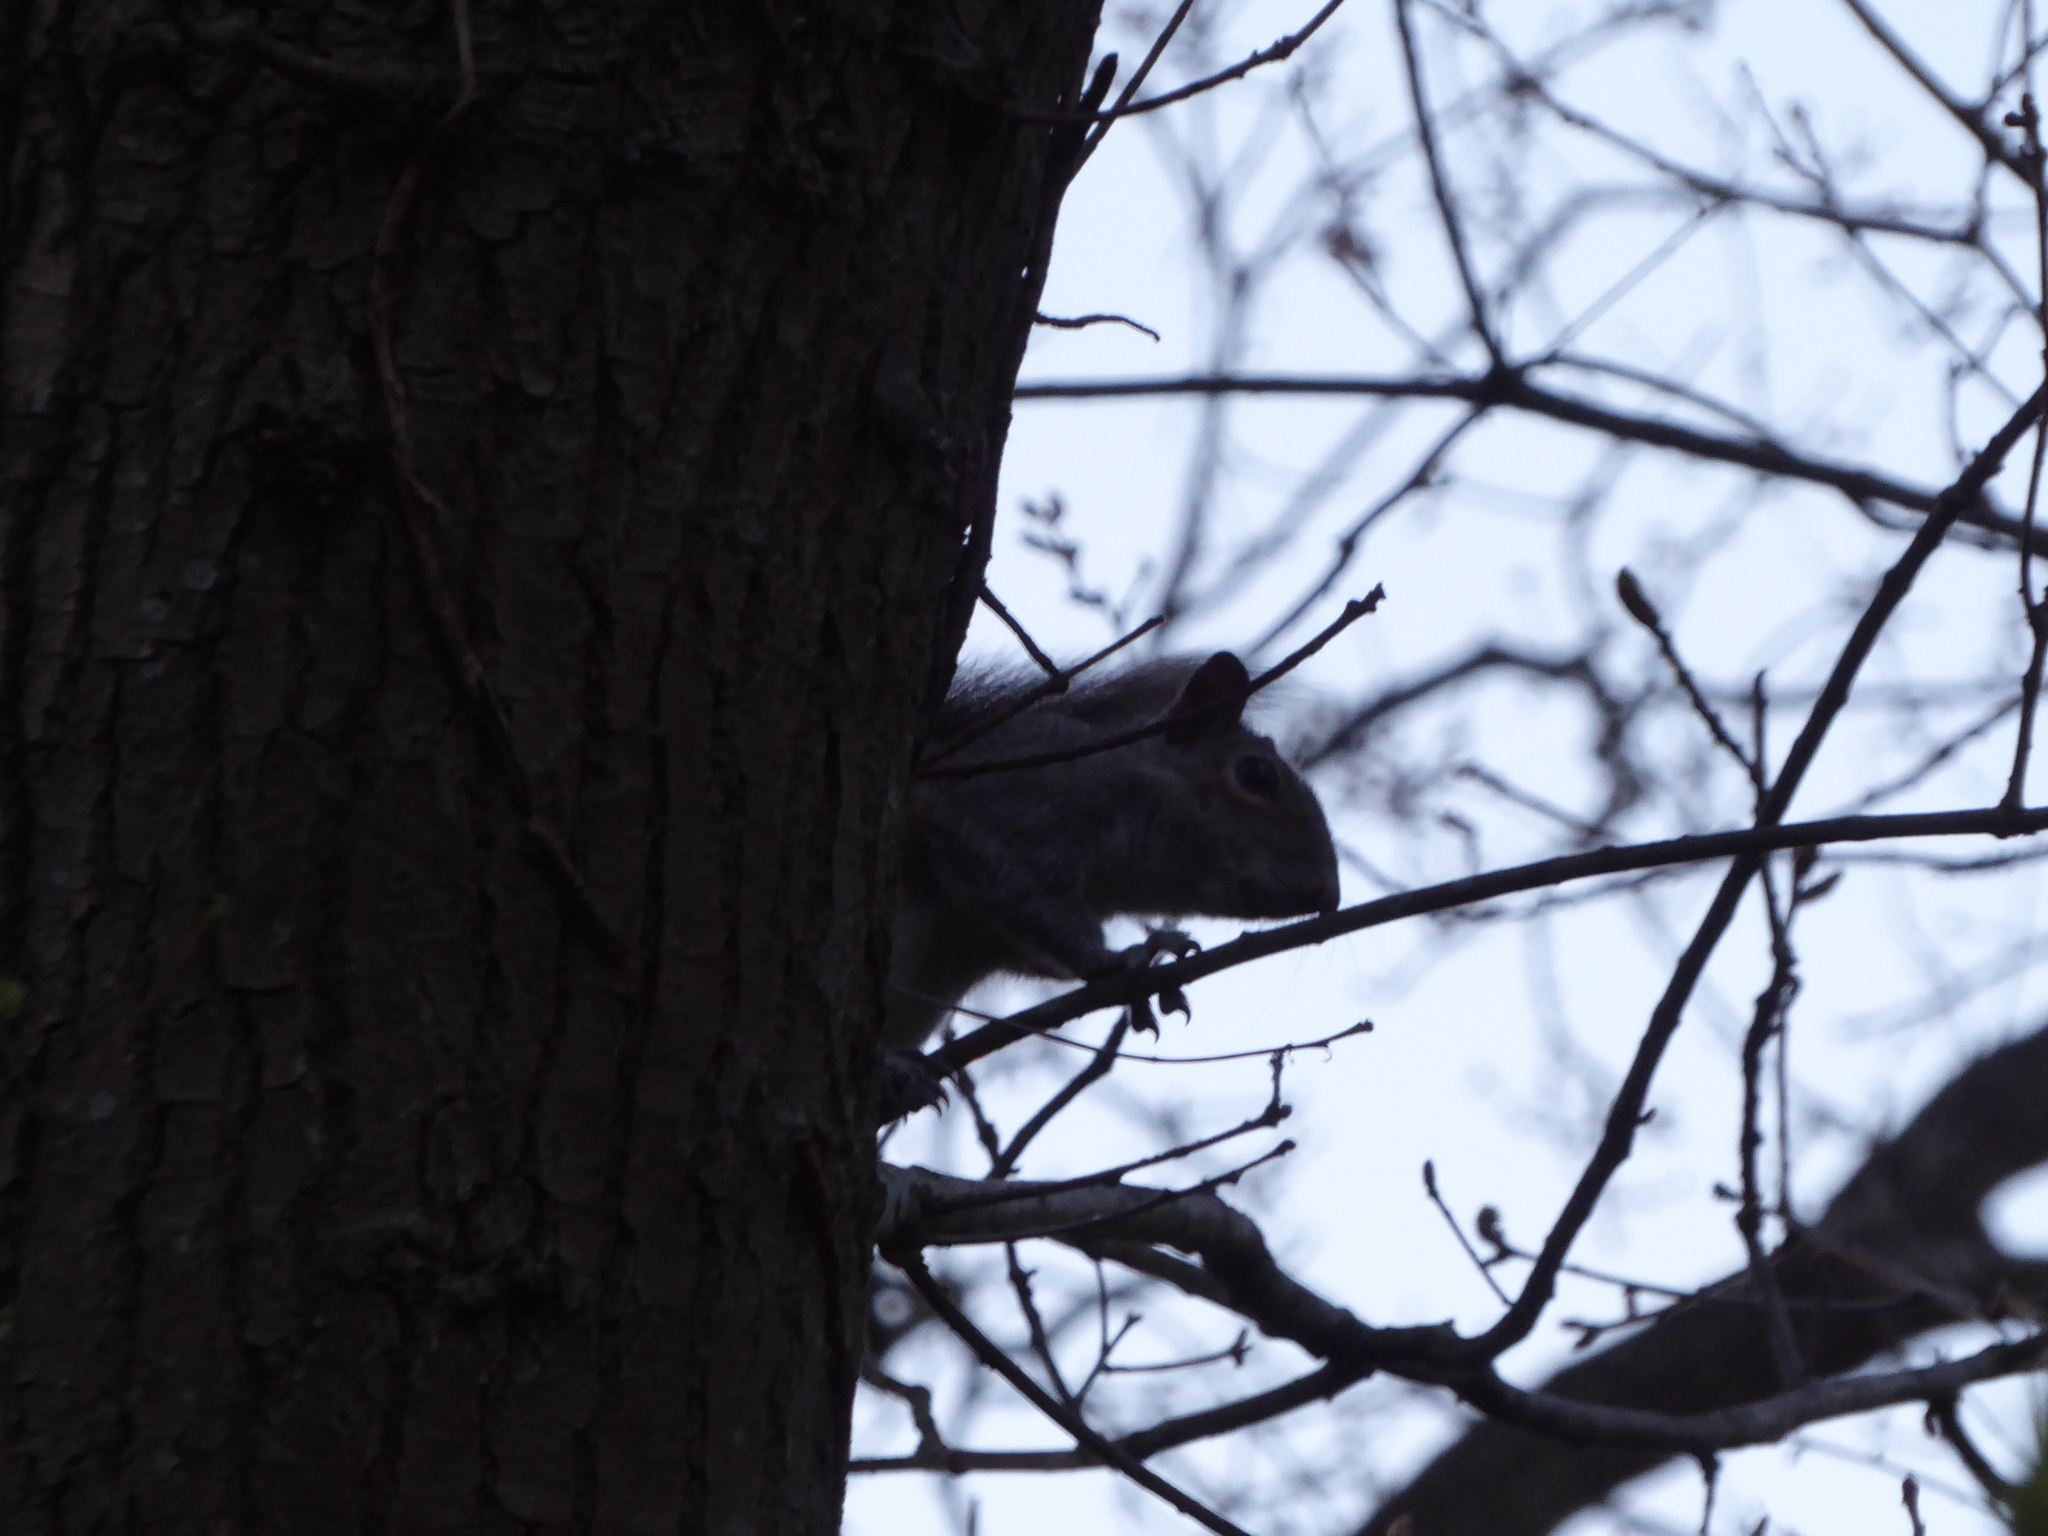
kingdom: Animalia
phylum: Chordata
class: Mammalia
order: Rodentia
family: Sciuridae
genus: Sciurus
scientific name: Sciurus carolinensis
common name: Eastern gray squirrel
